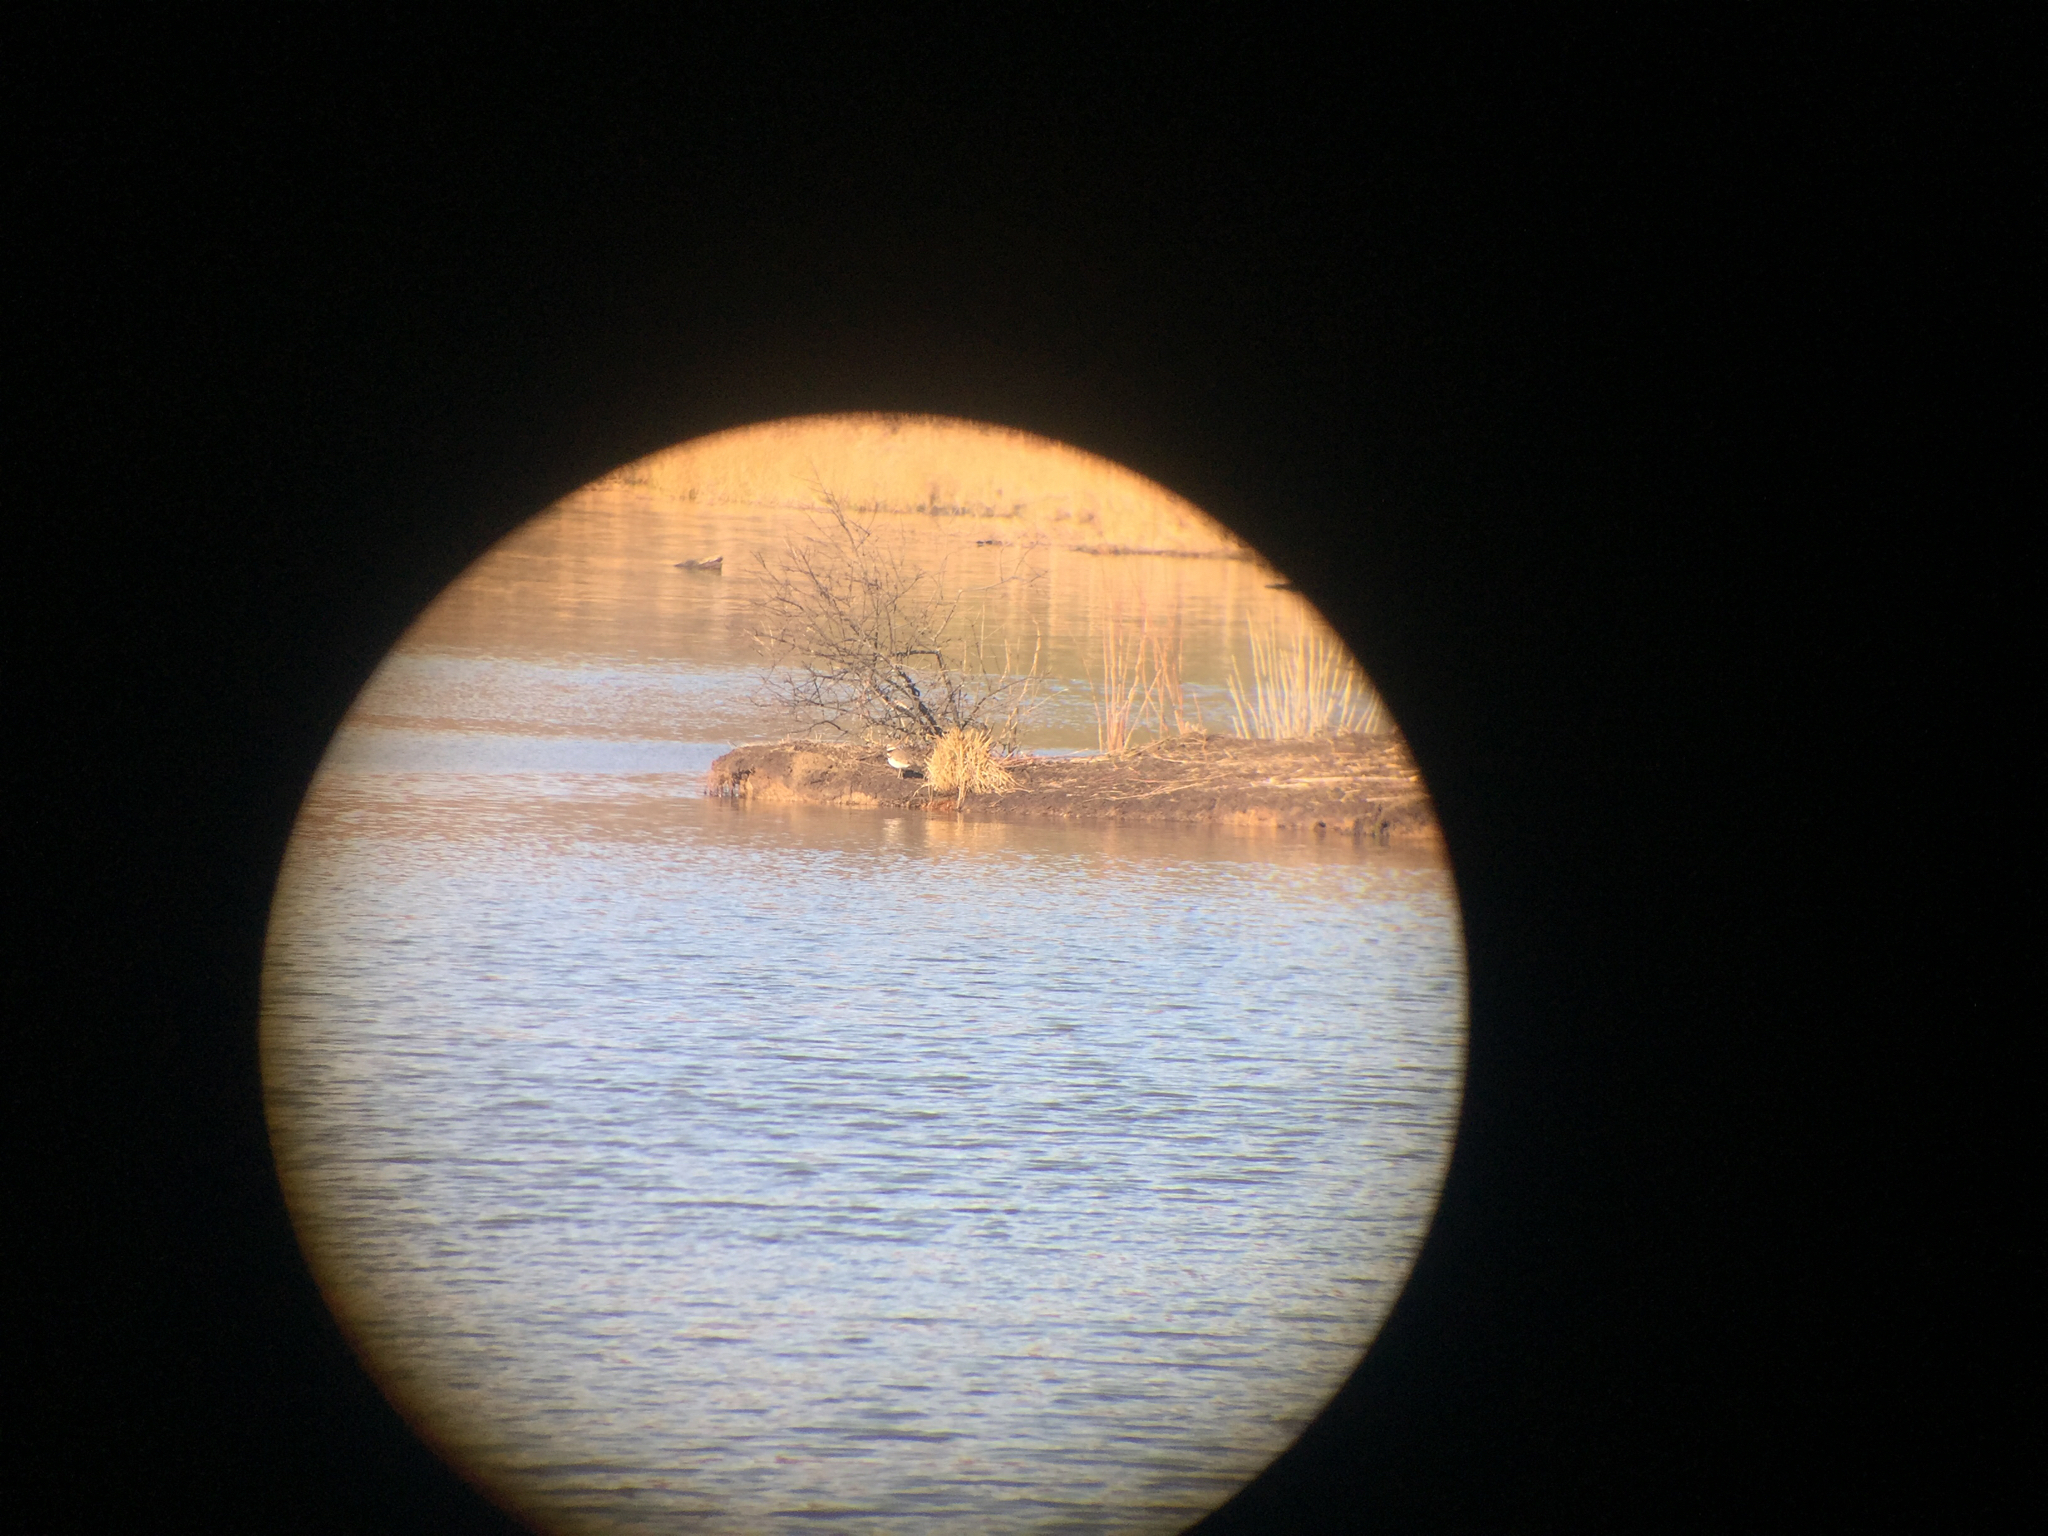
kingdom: Animalia
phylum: Chordata
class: Aves
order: Charadriiformes
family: Charadriidae
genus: Charadrius
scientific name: Charadrius vociferus
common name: Killdeer
